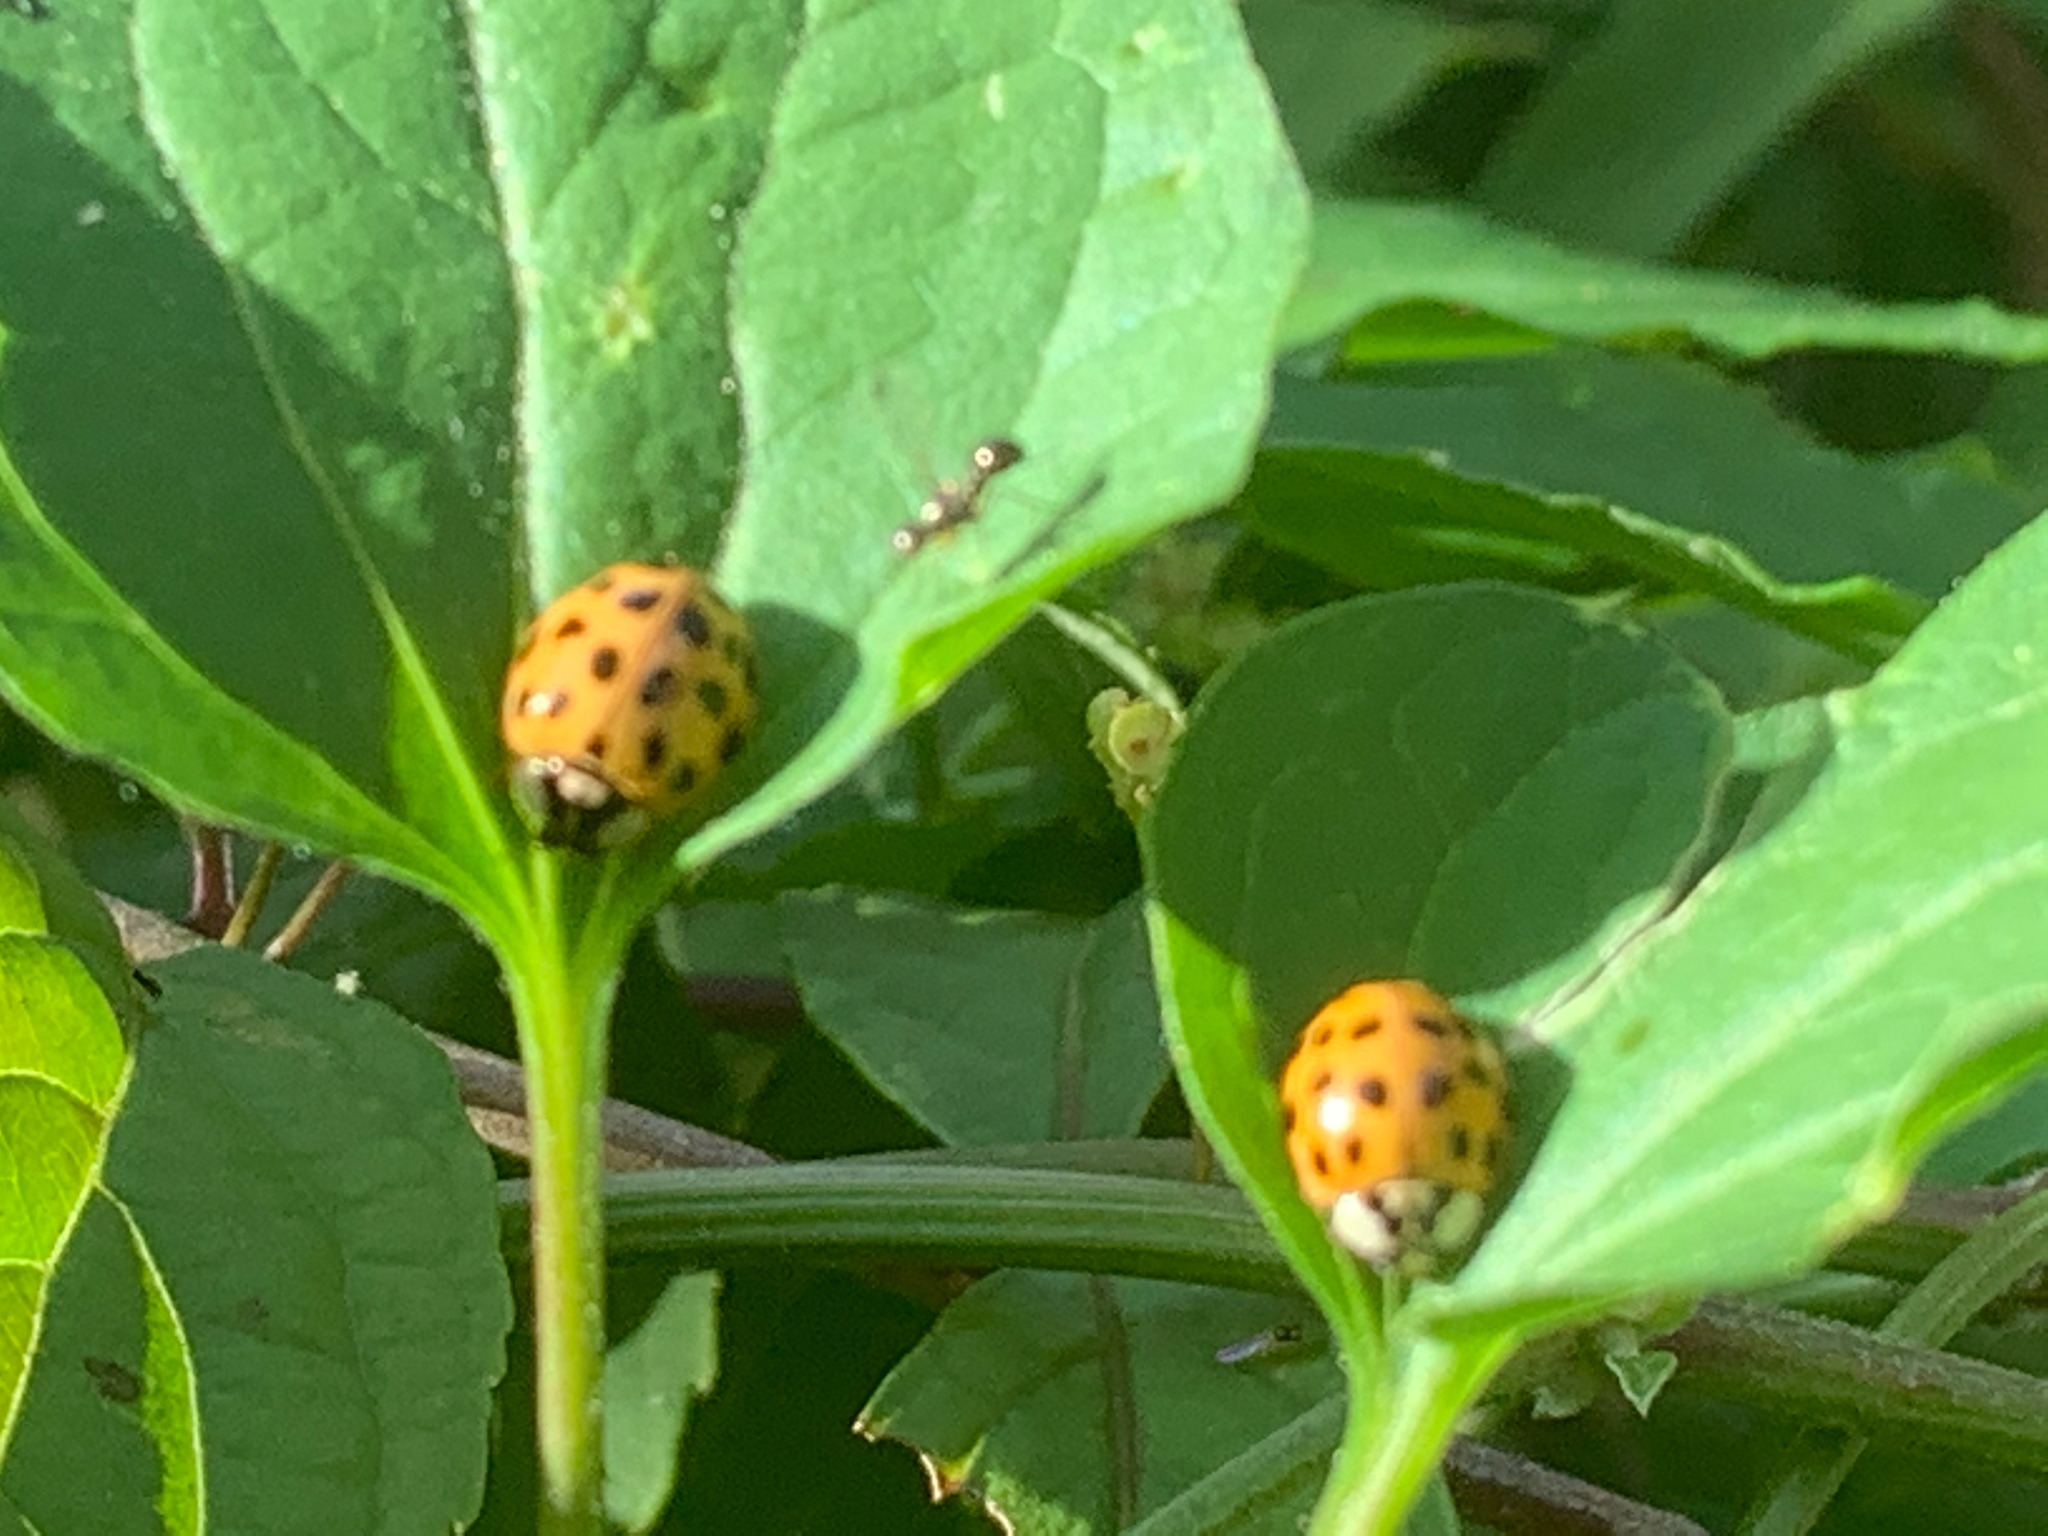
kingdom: Animalia
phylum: Arthropoda
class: Insecta
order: Coleoptera
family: Coccinellidae
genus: Harmonia
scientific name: Harmonia axyridis
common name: Harlequin ladybird
